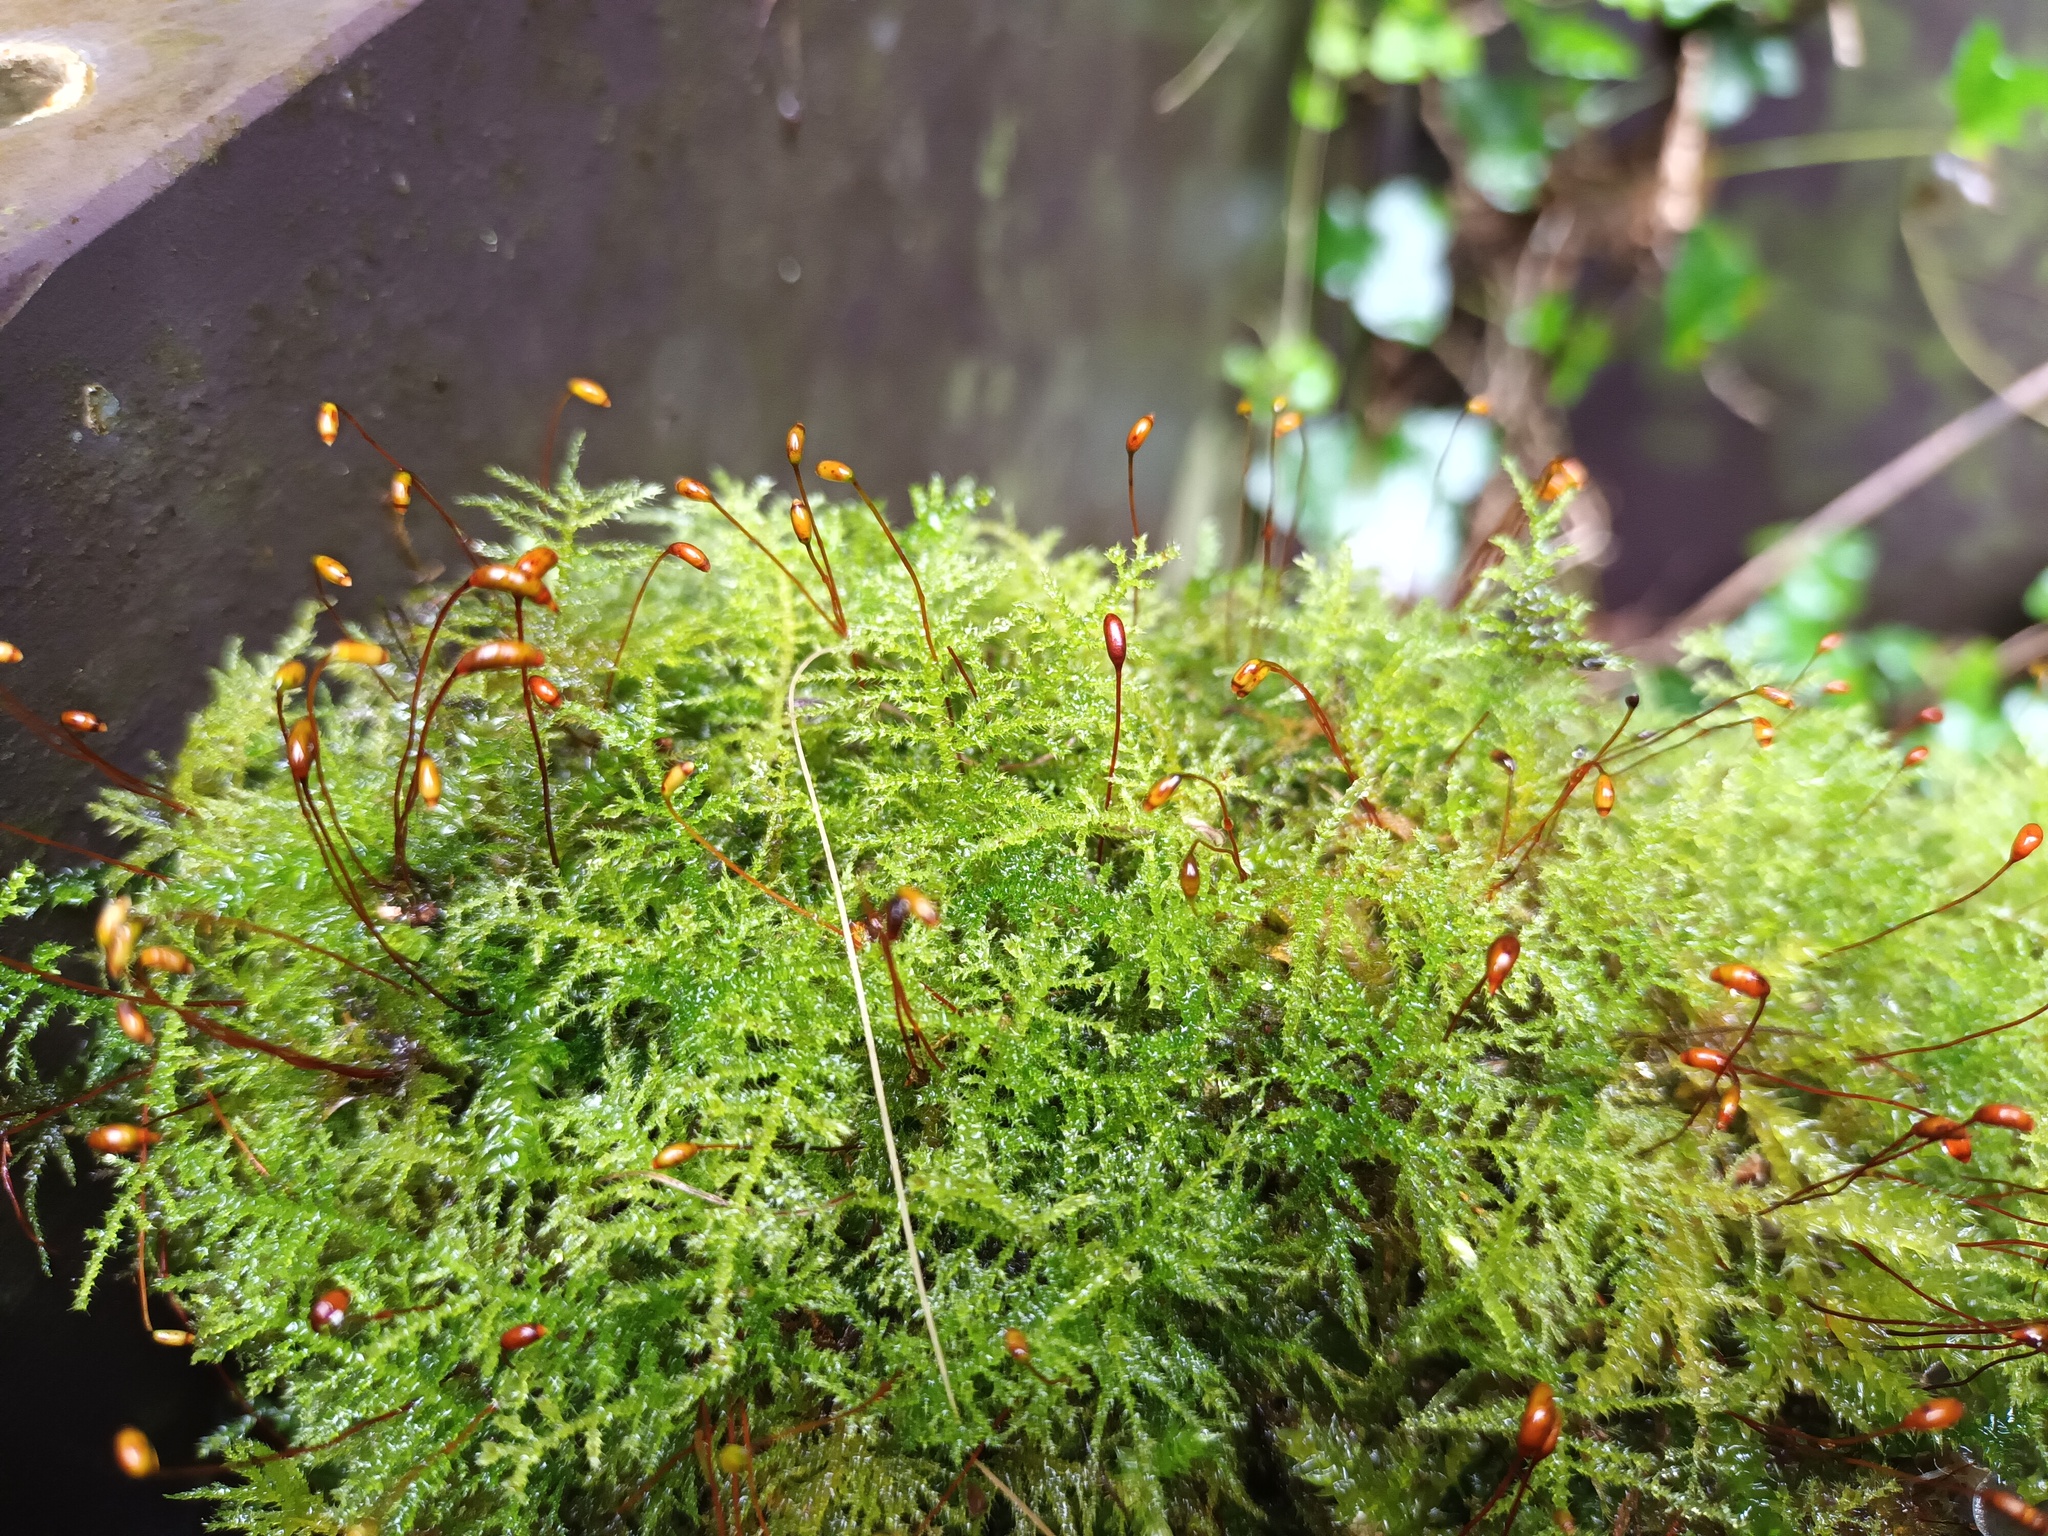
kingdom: Plantae
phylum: Bryophyta
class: Bryopsida
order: Hypnales
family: Brachytheciaceae
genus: Kindbergia
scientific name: Kindbergia praelonga
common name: Slender beaked moss
